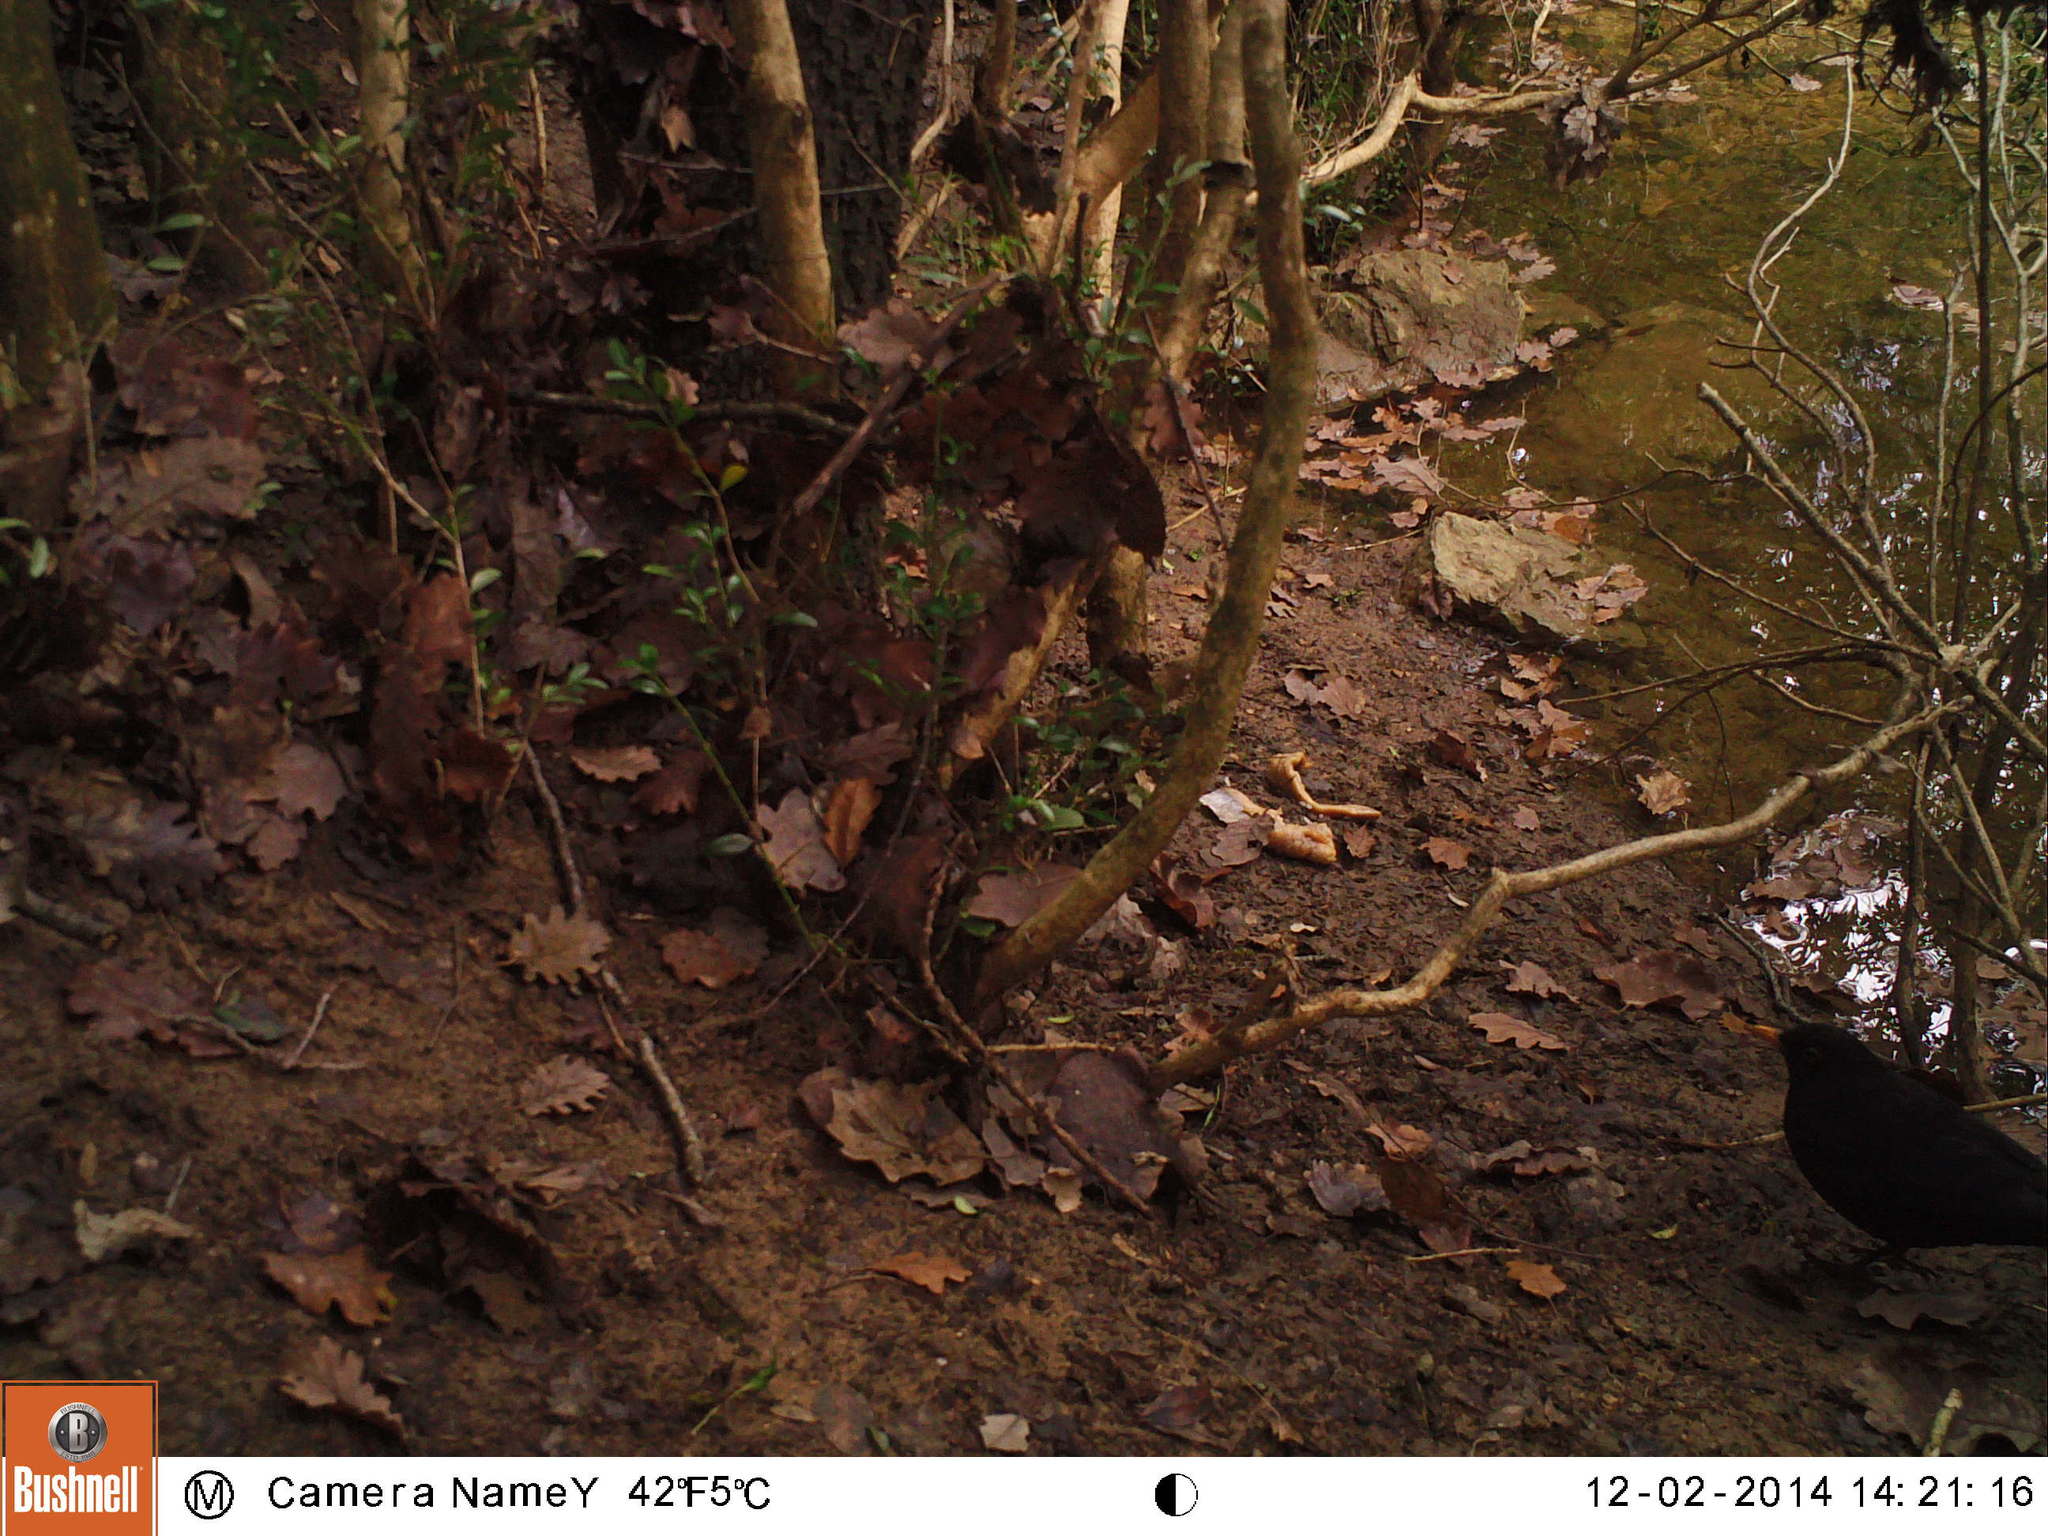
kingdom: Animalia
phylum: Chordata
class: Aves
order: Passeriformes
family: Turdidae
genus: Turdus
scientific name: Turdus merula
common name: Common blackbird
